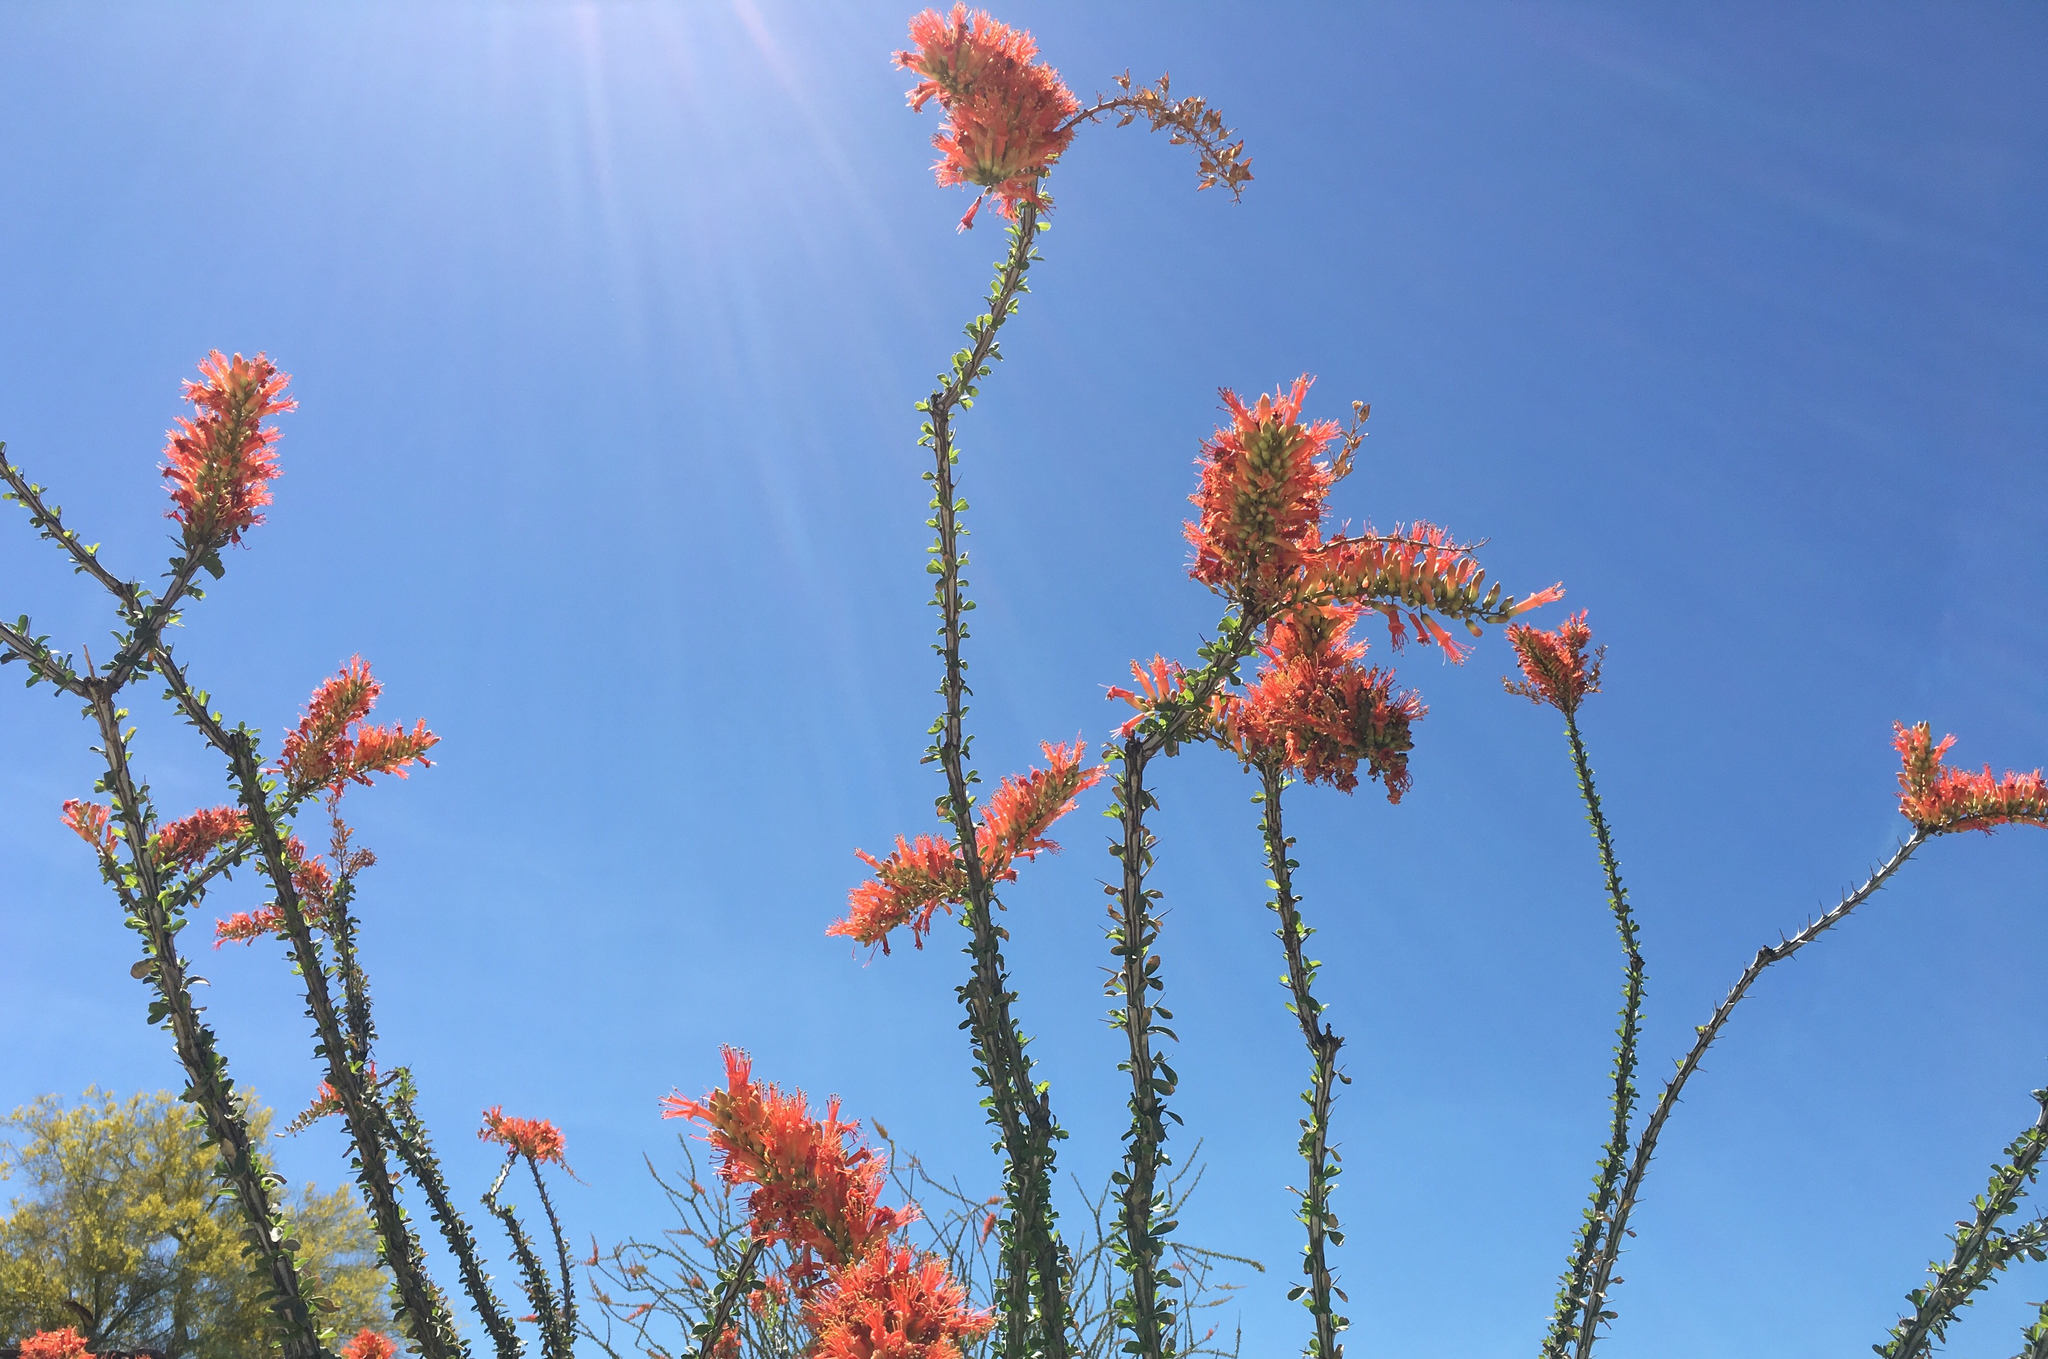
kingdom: Plantae
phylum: Tracheophyta
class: Magnoliopsida
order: Ericales
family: Fouquieriaceae
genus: Fouquieria
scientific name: Fouquieria splendens
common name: Vine-cactus
